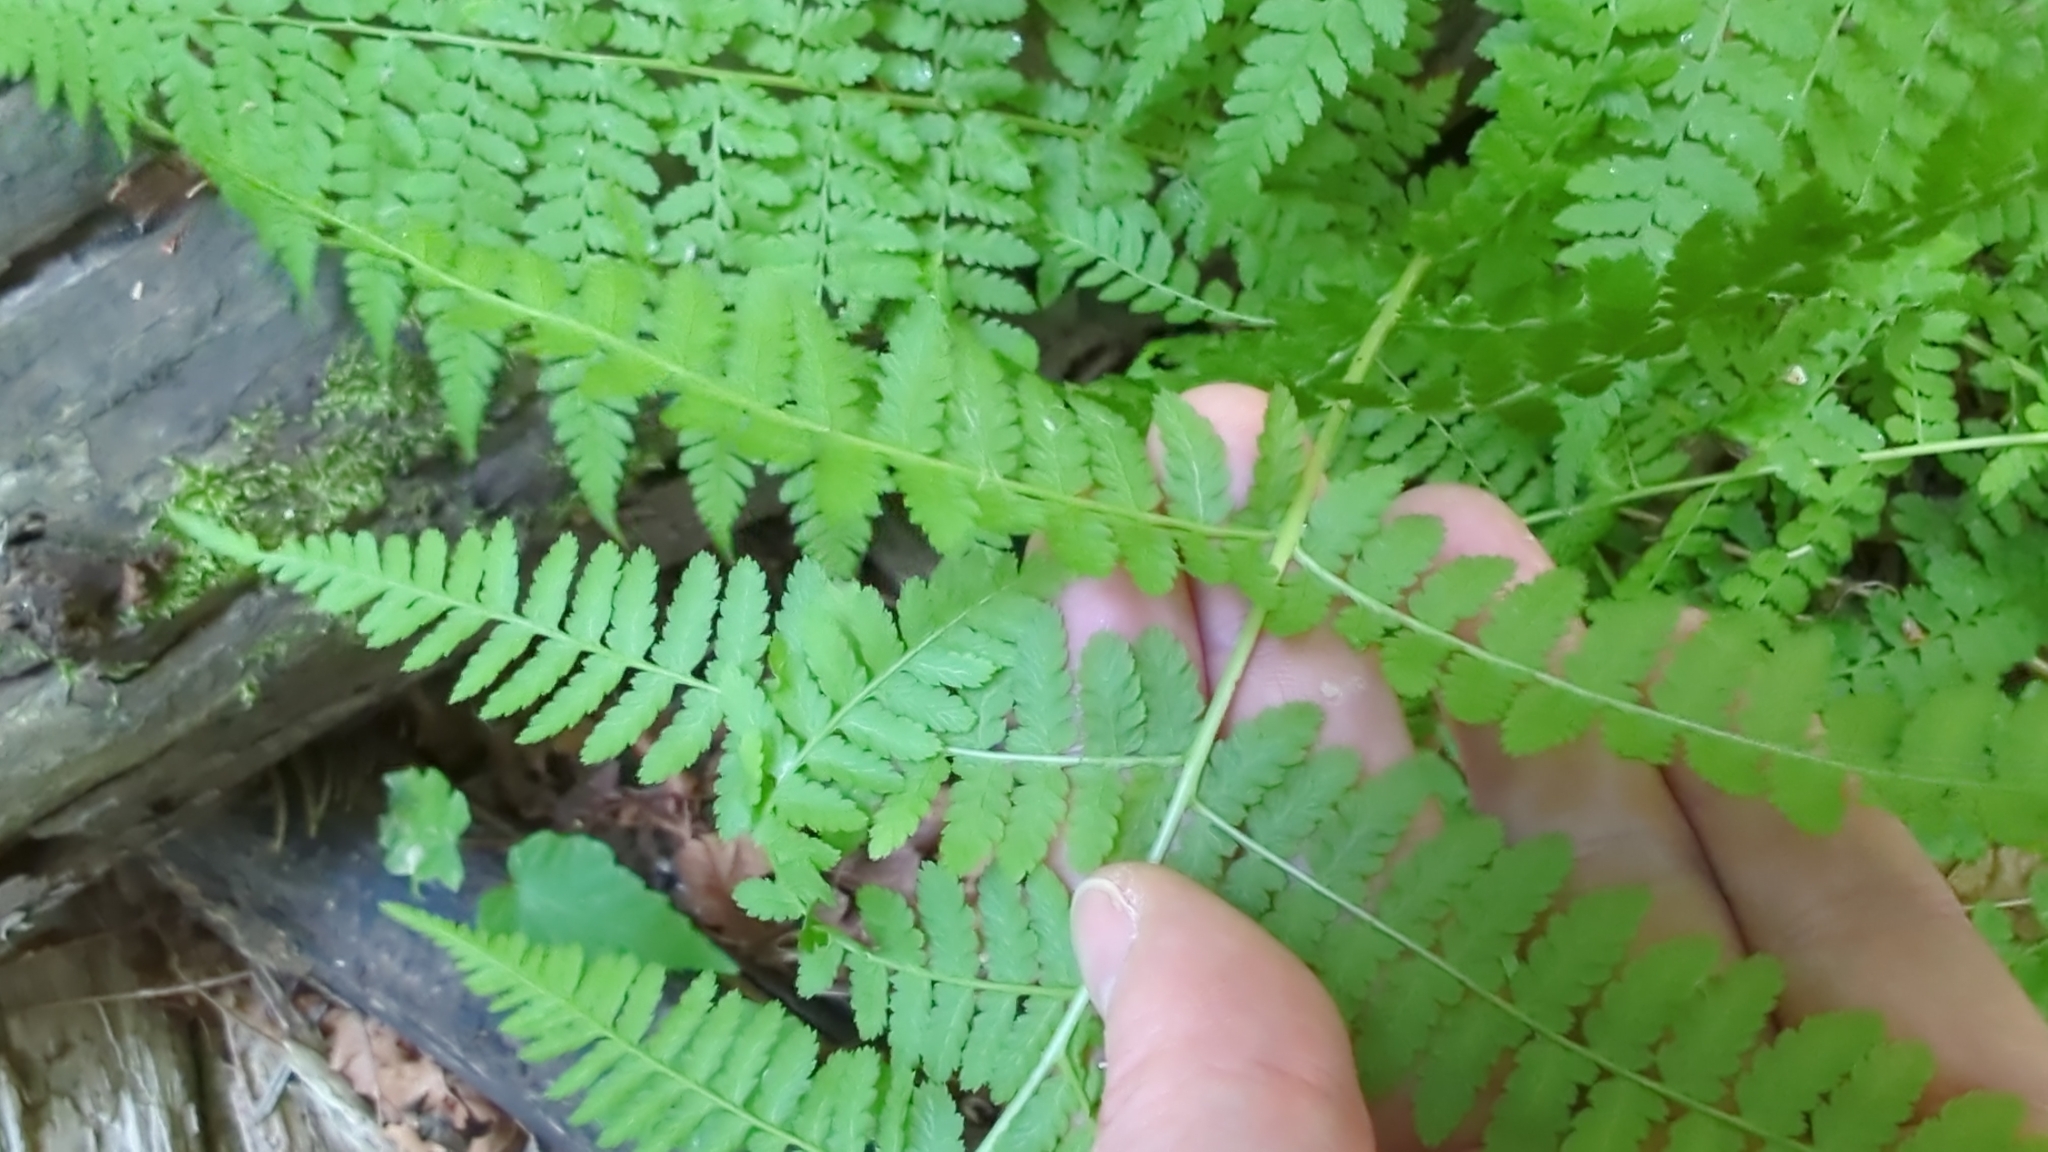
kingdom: Plantae
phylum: Tracheophyta
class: Polypodiopsida
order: Polypodiales
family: Athyriaceae
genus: Athyrium
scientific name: Athyrium filix-femina
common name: Lady fern
